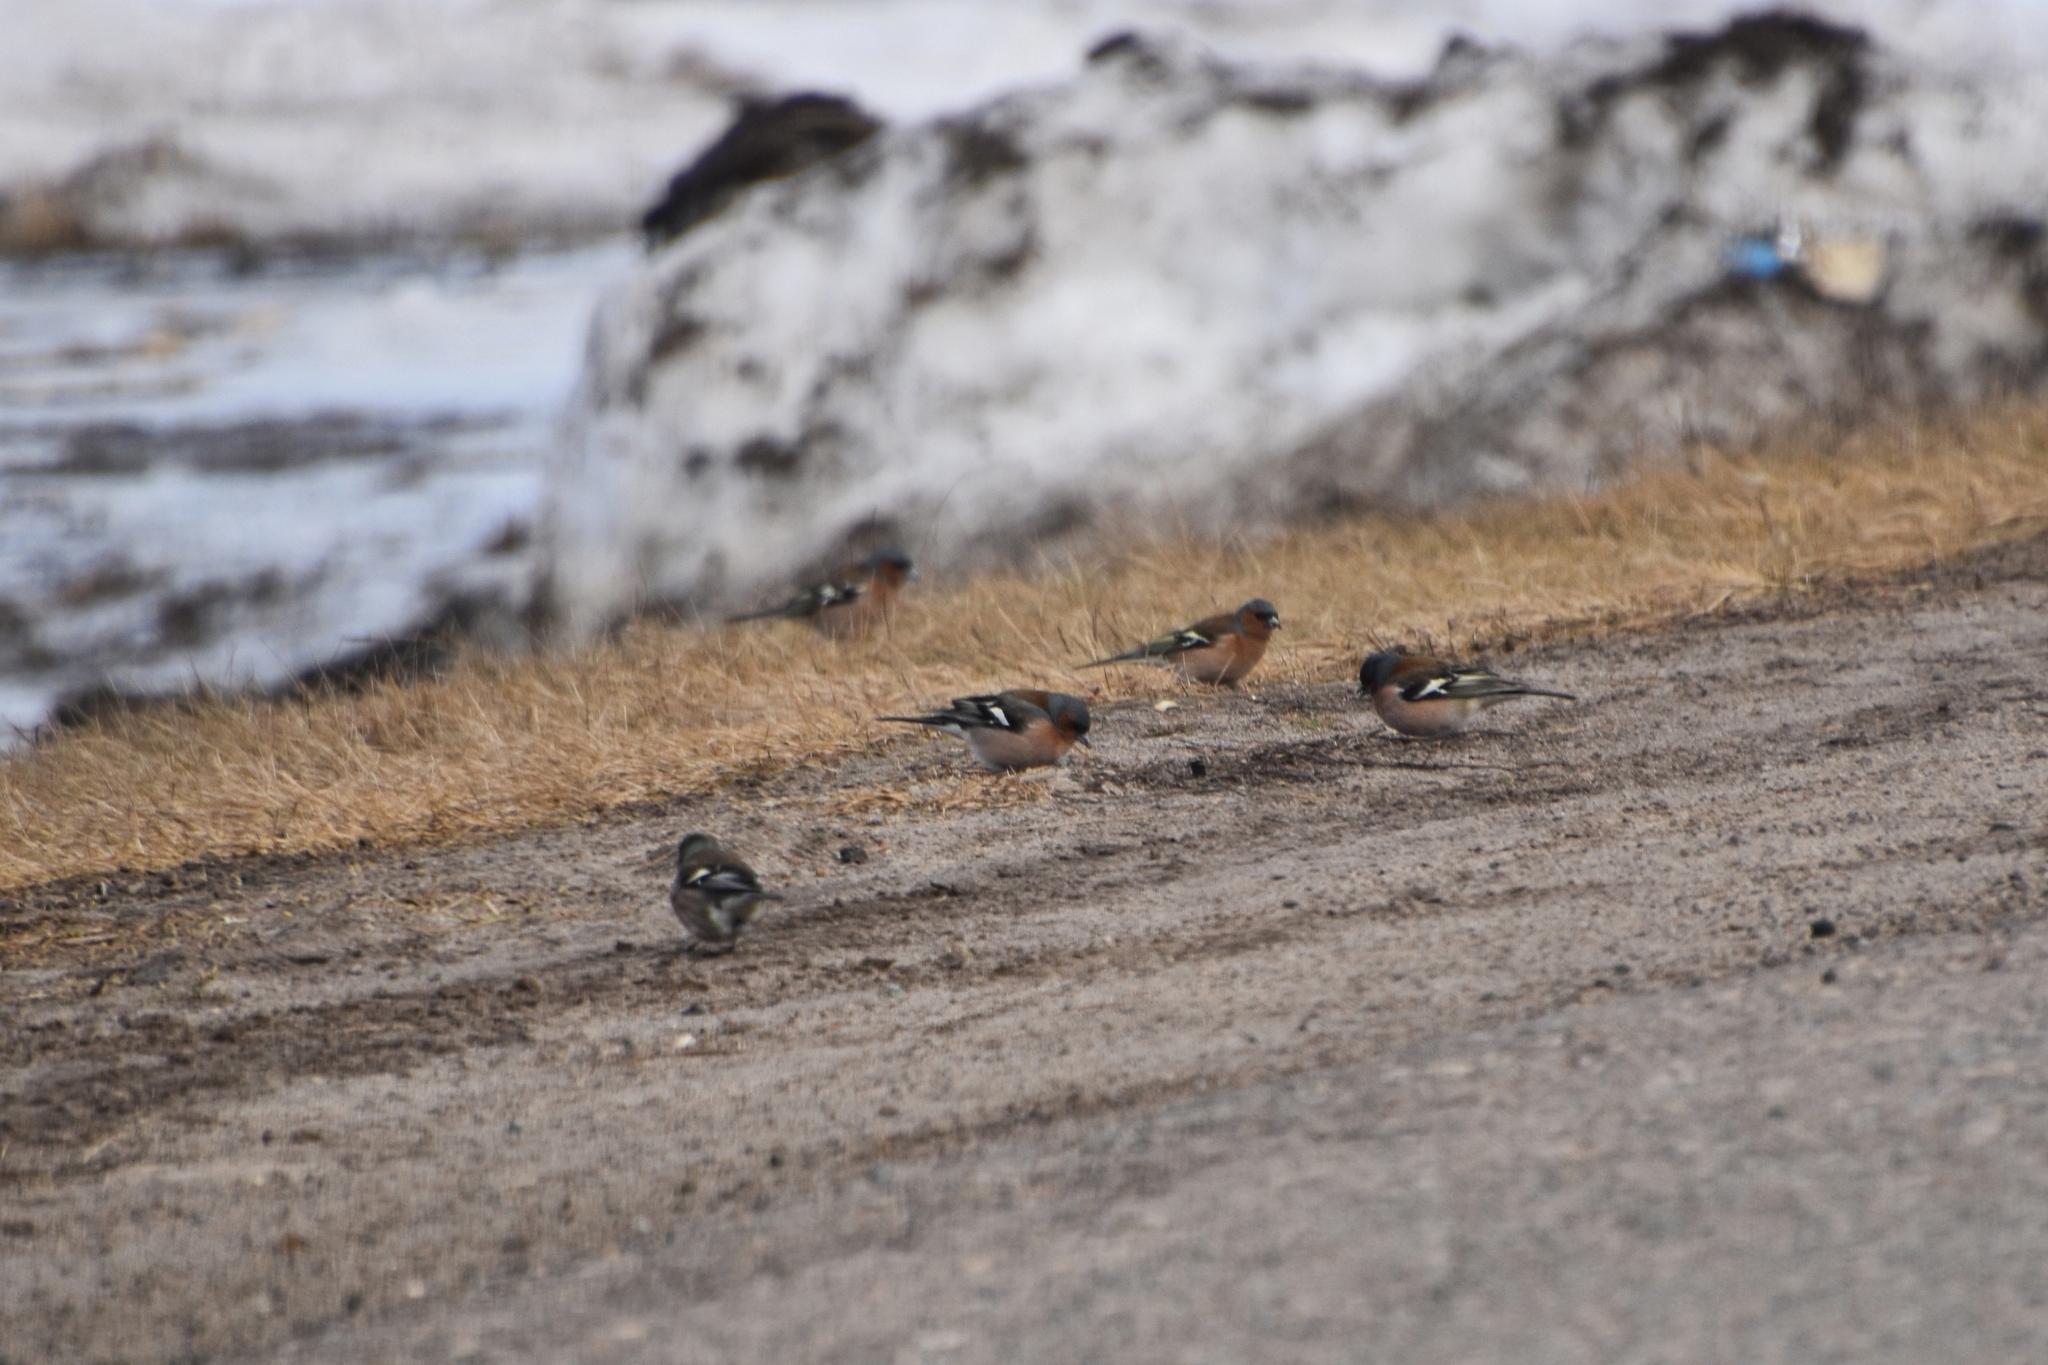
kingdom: Animalia
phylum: Chordata
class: Aves
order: Passeriformes
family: Fringillidae
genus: Fringilla
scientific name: Fringilla coelebs
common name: Common chaffinch
